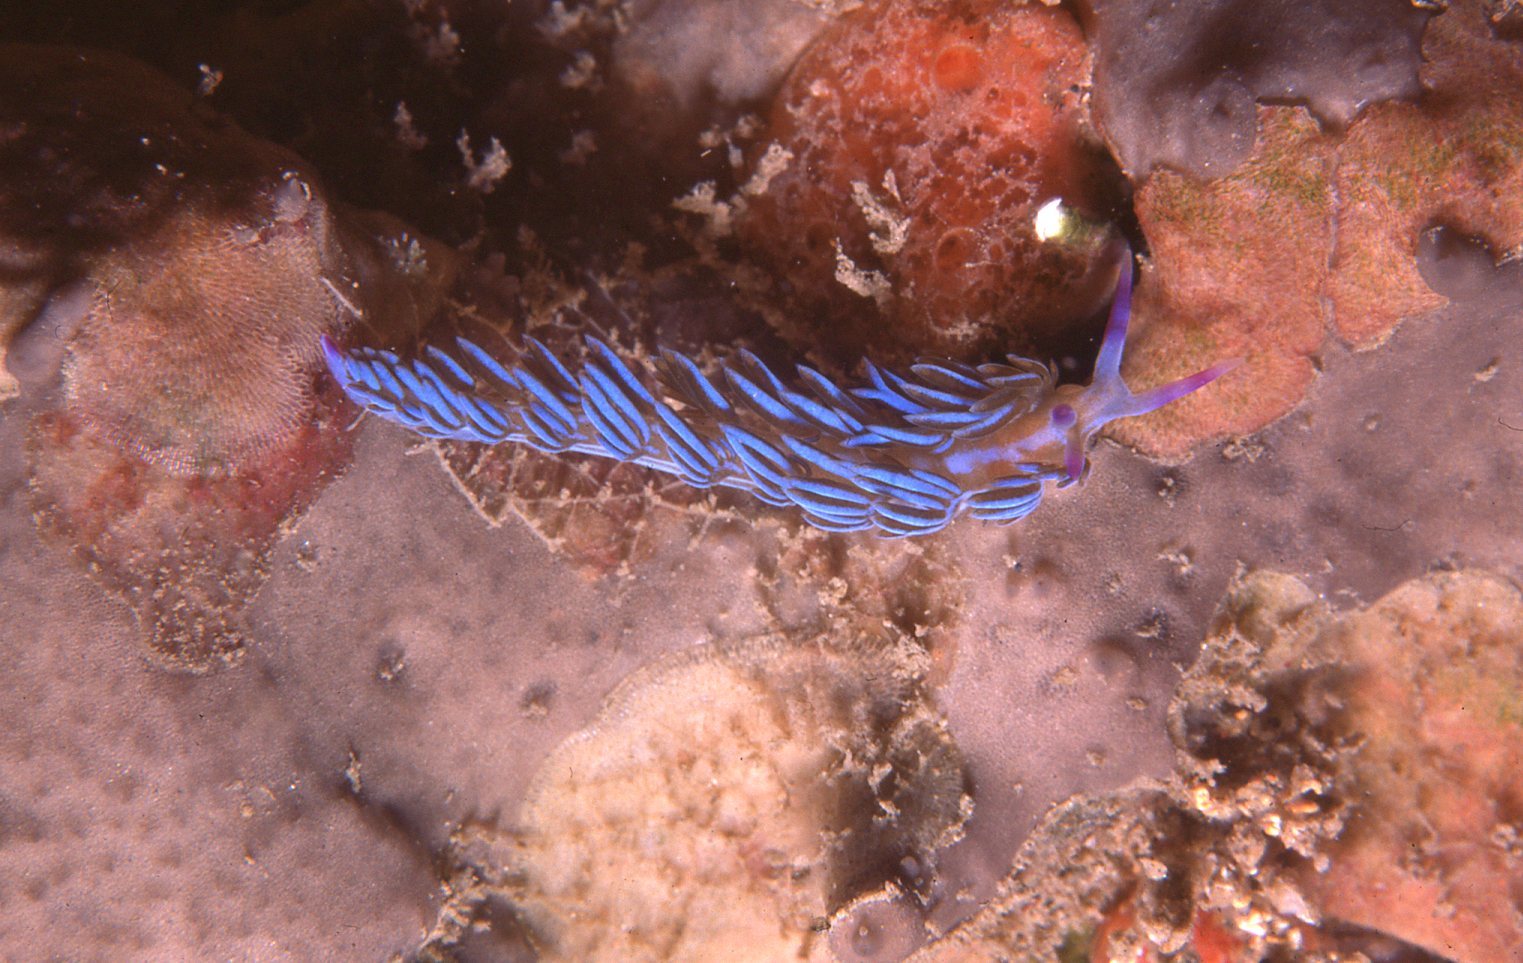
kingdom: Animalia
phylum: Mollusca
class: Gastropoda
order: Nudibranchia
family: Facelinidae
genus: Pteraeolidia
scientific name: Pteraeolidia ianthina
